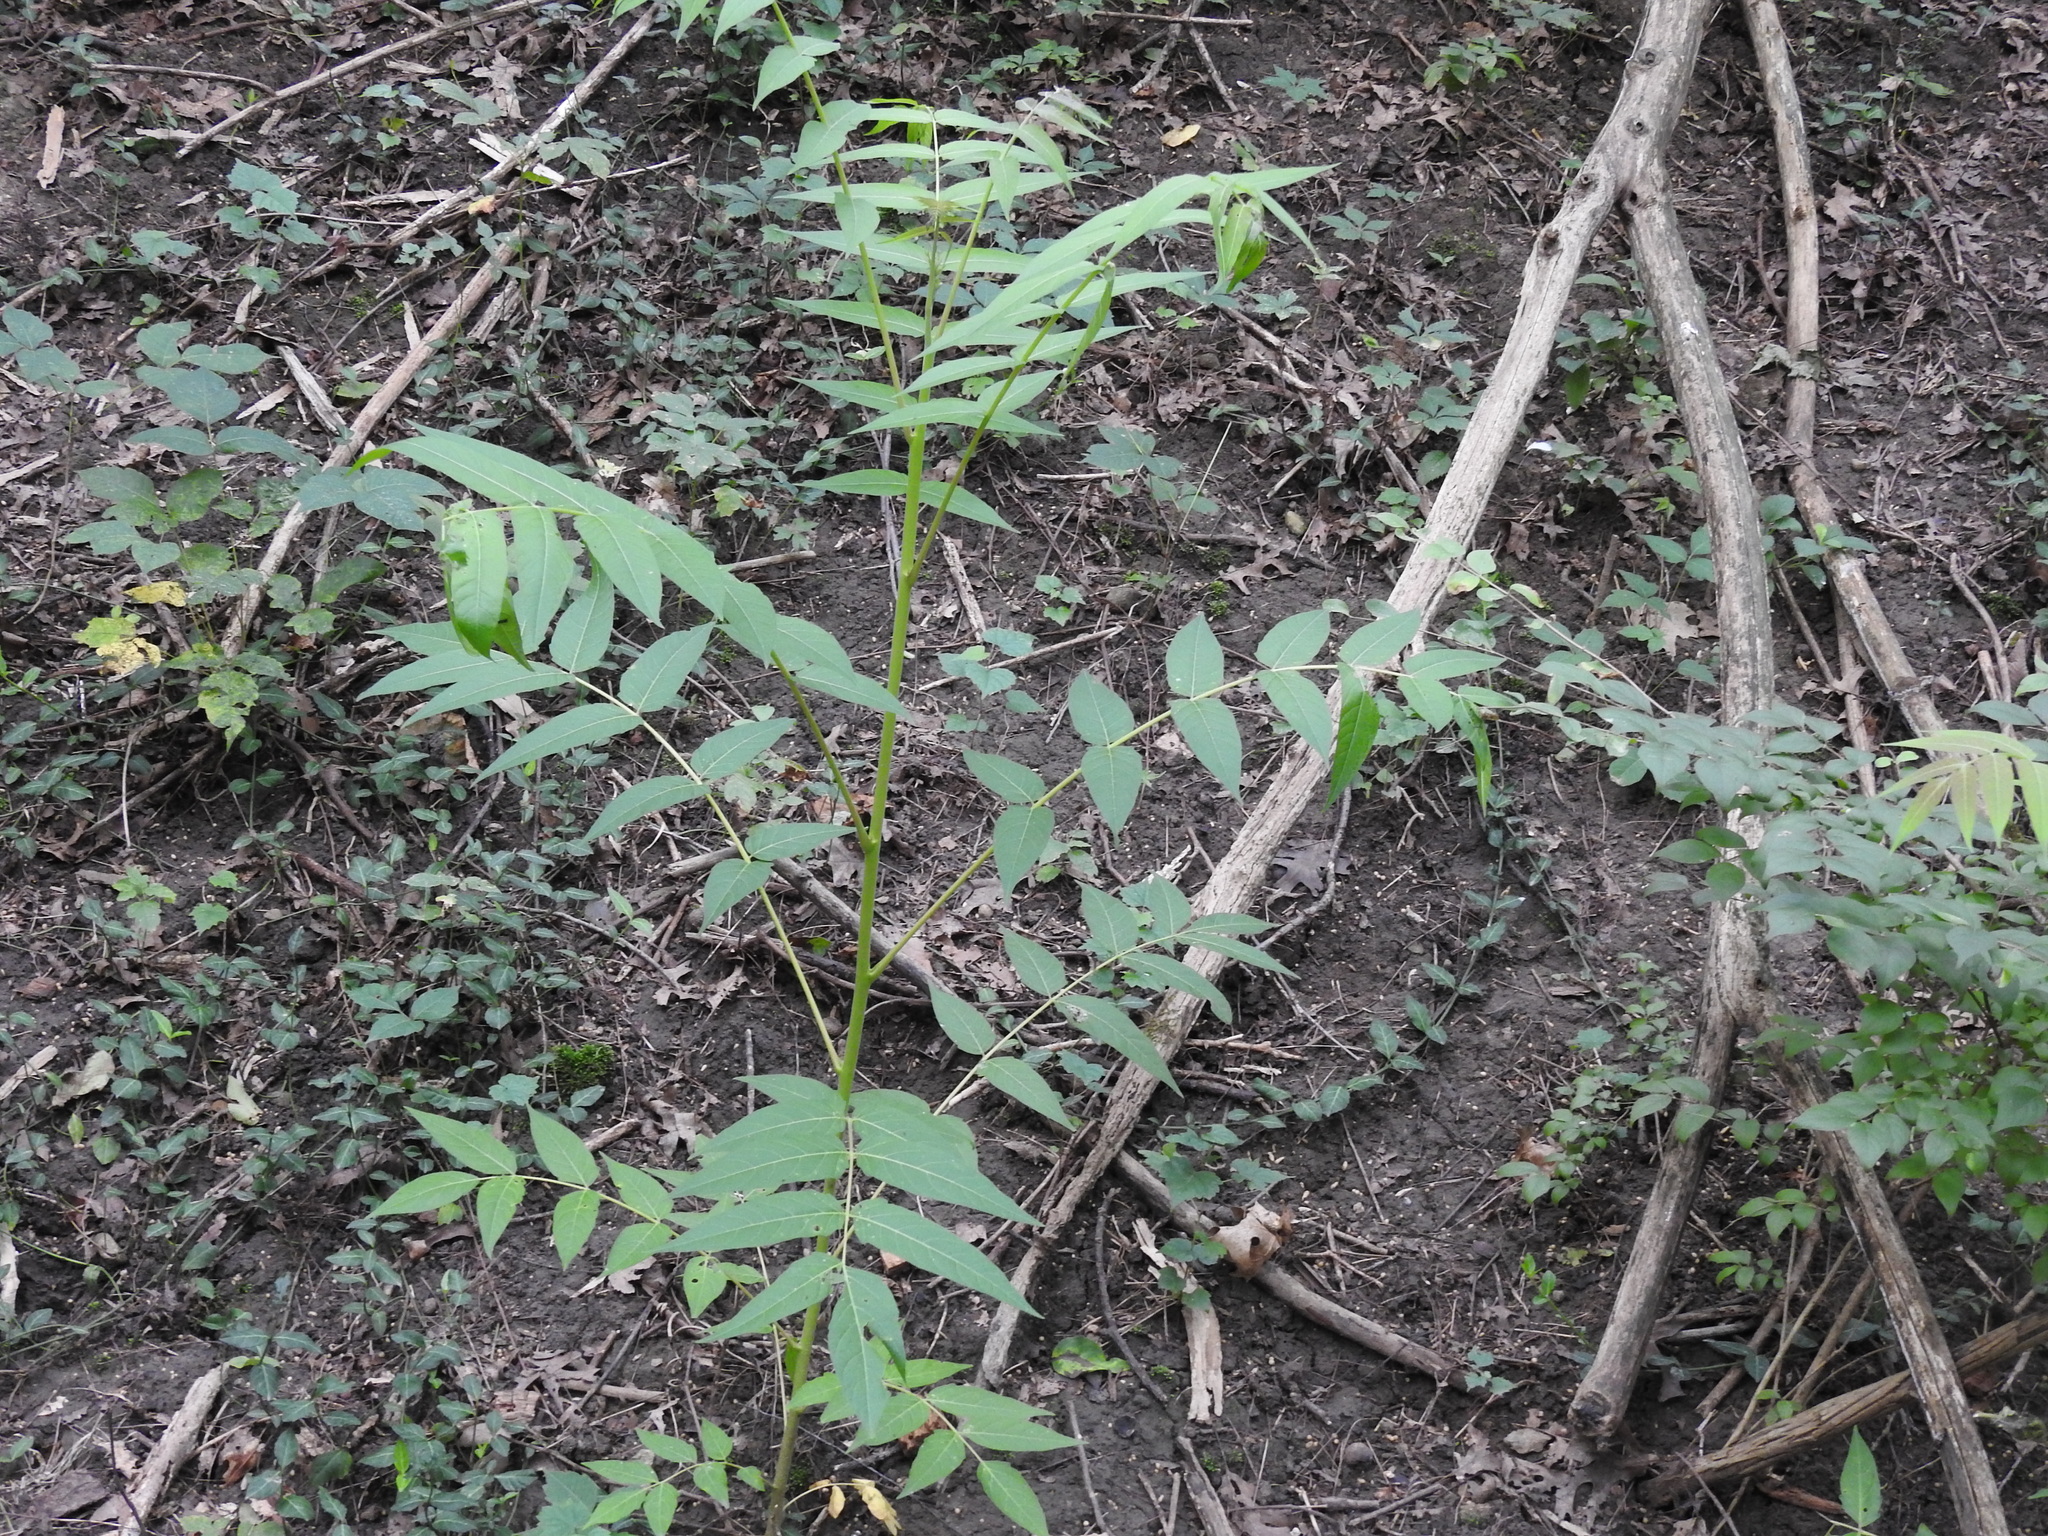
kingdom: Plantae
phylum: Tracheophyta
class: Magnoliopsida
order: Sapindales
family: Simaroubaceae
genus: Ailanthus
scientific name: Ailanthus altissima
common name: Tree-of-heaven
